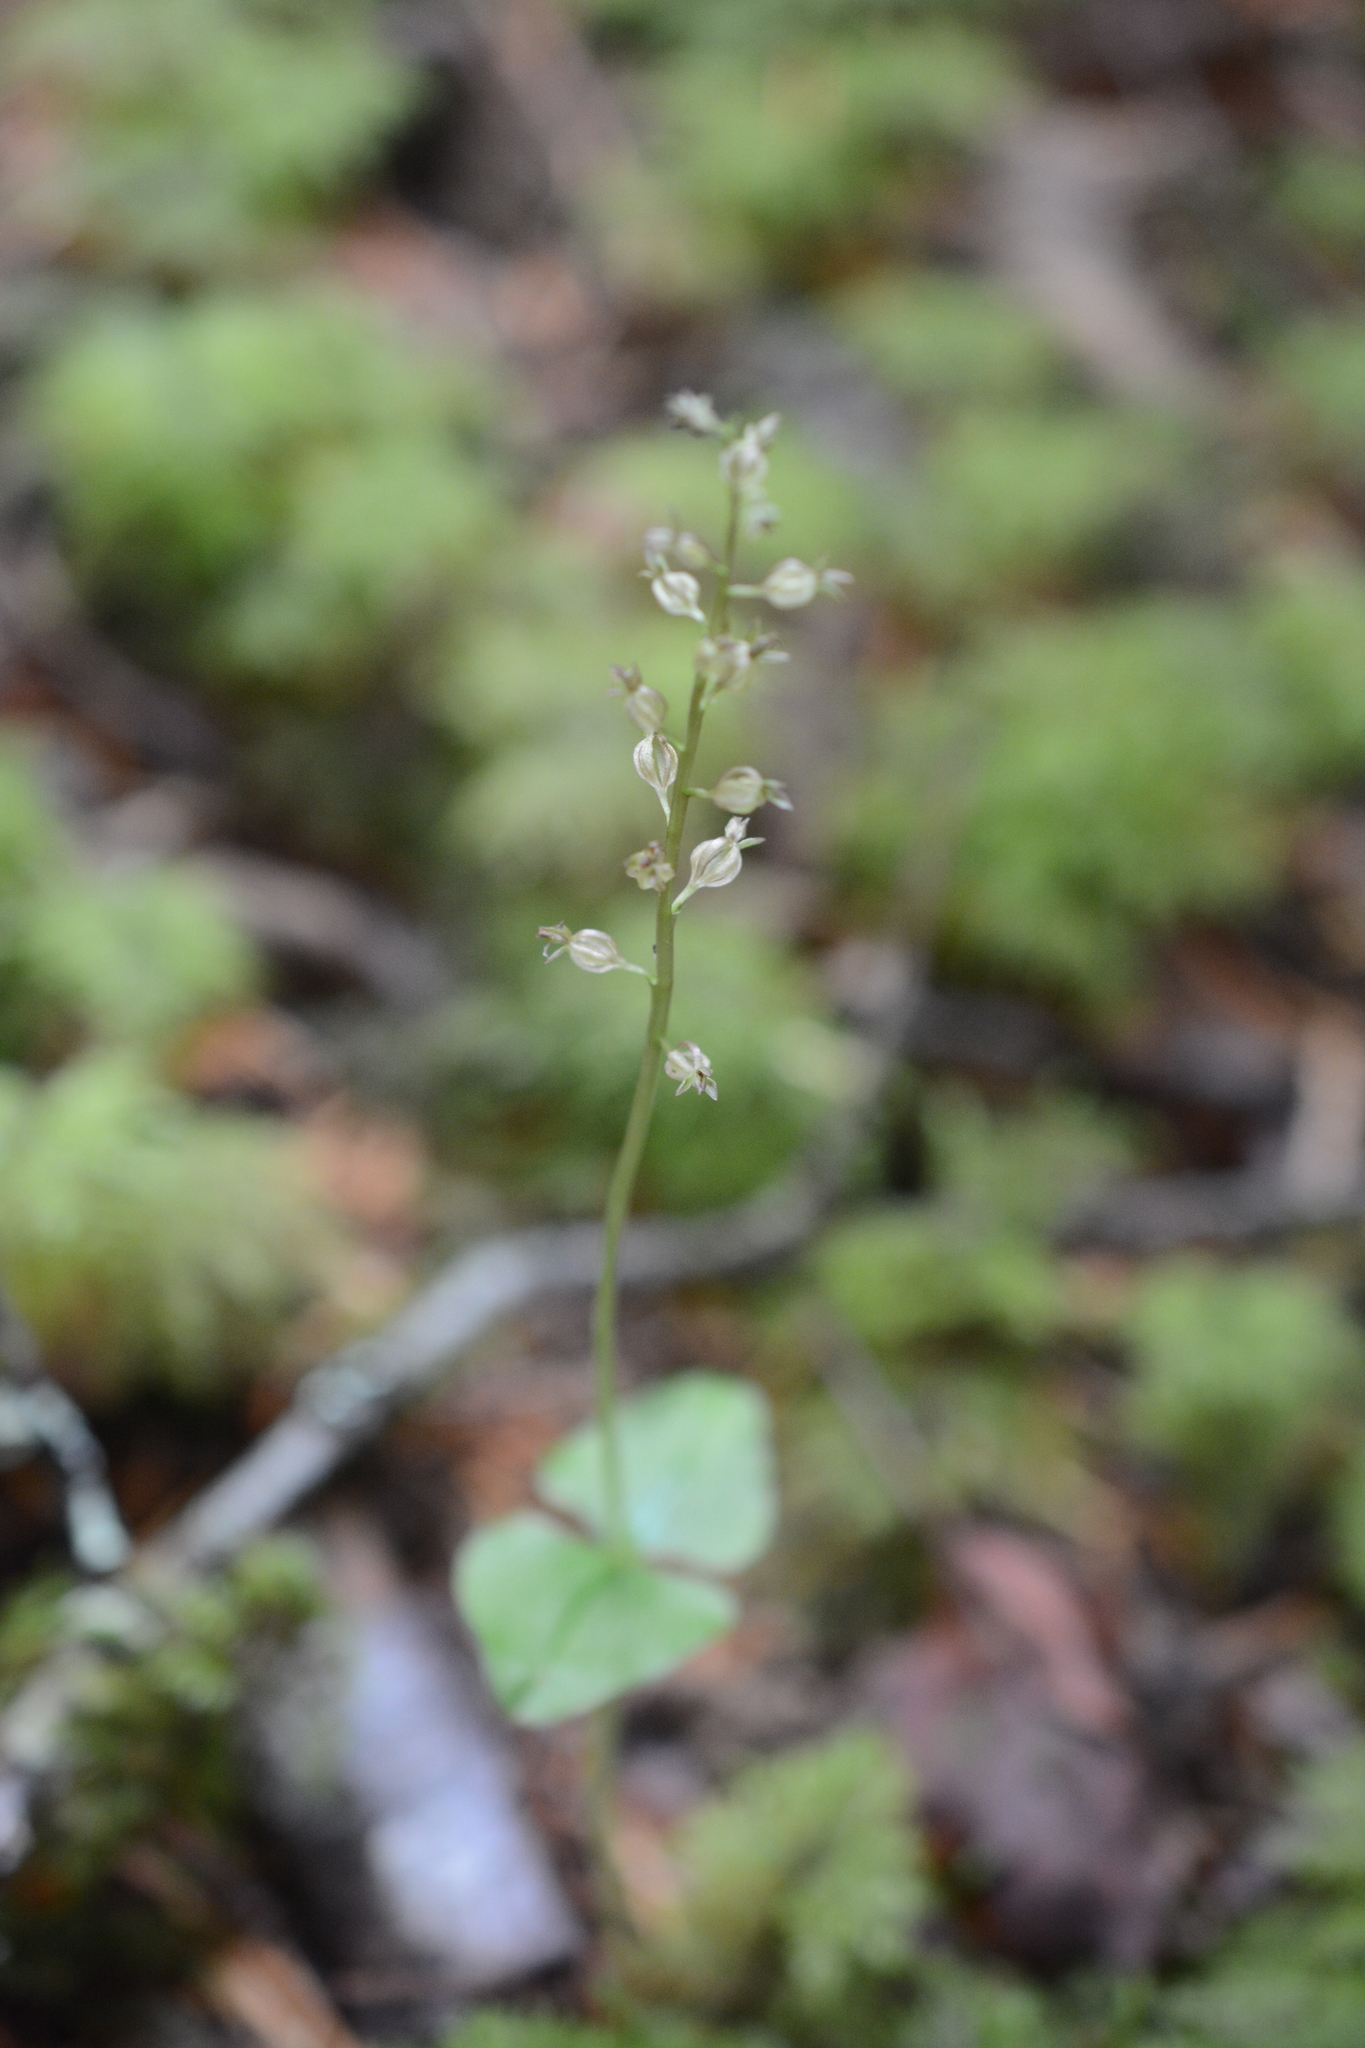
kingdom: Plantae
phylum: Tracheophyta
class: Liliopsida
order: Asparagales
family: Orchidaceae
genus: Neottia
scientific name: Neottia cordata
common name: Lesser twayblade
